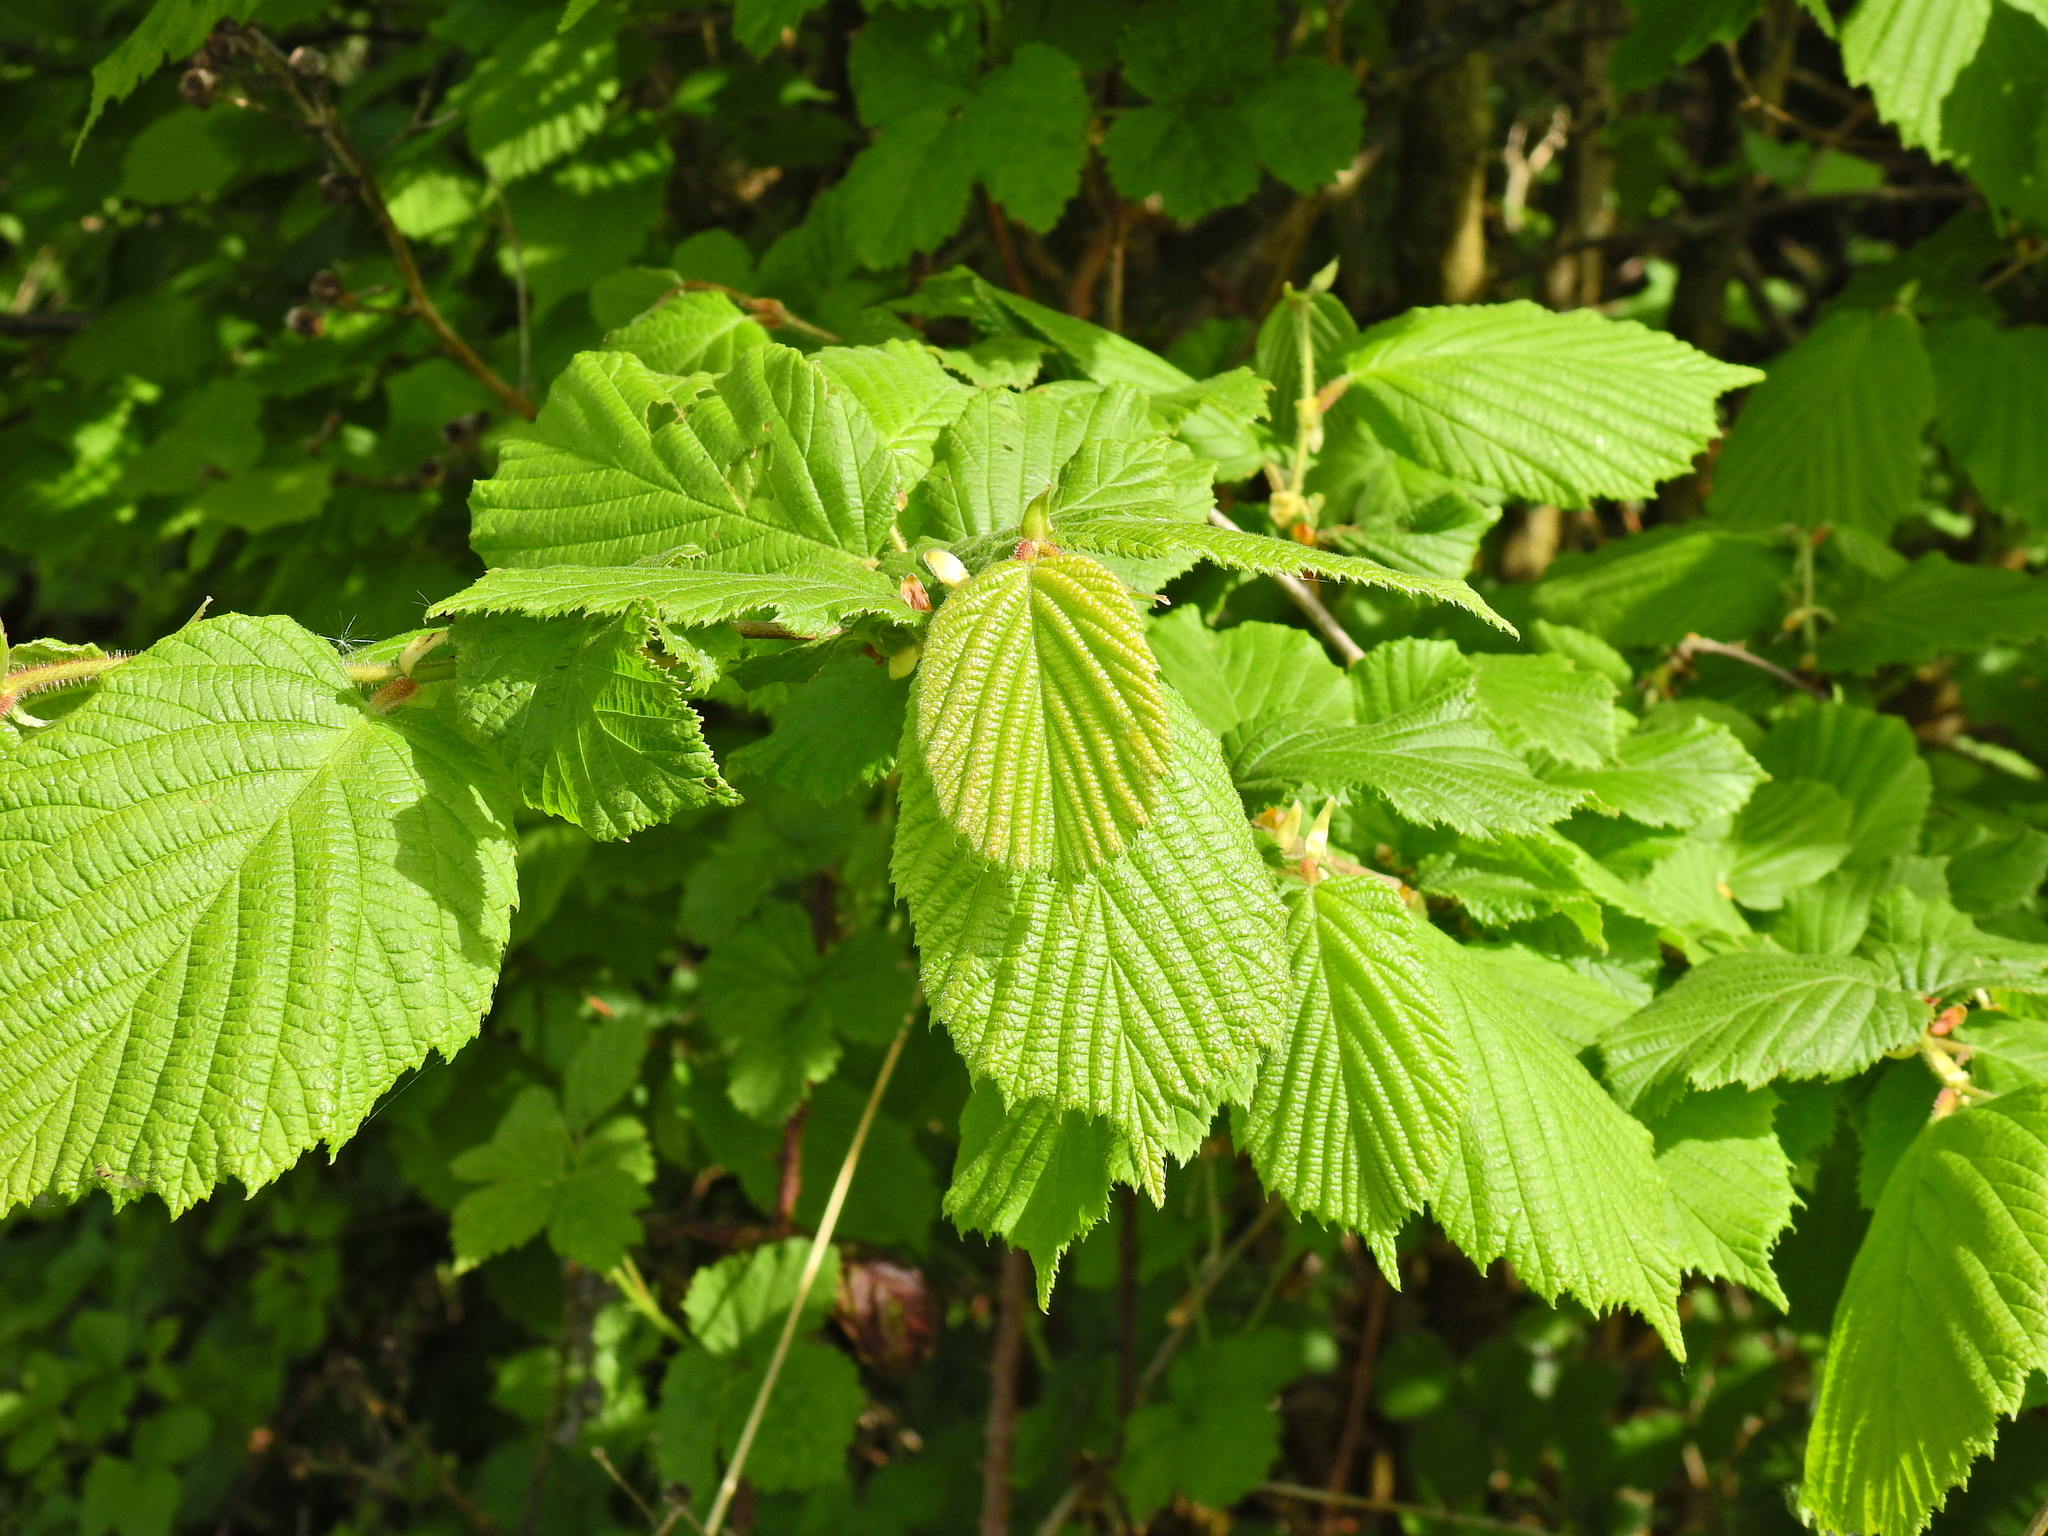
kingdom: Plantae
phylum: Tracheophyta
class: Magnoliopsida
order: Fagales
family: Betulaceae
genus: Corylus
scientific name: Corylus avellana
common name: European hazel
